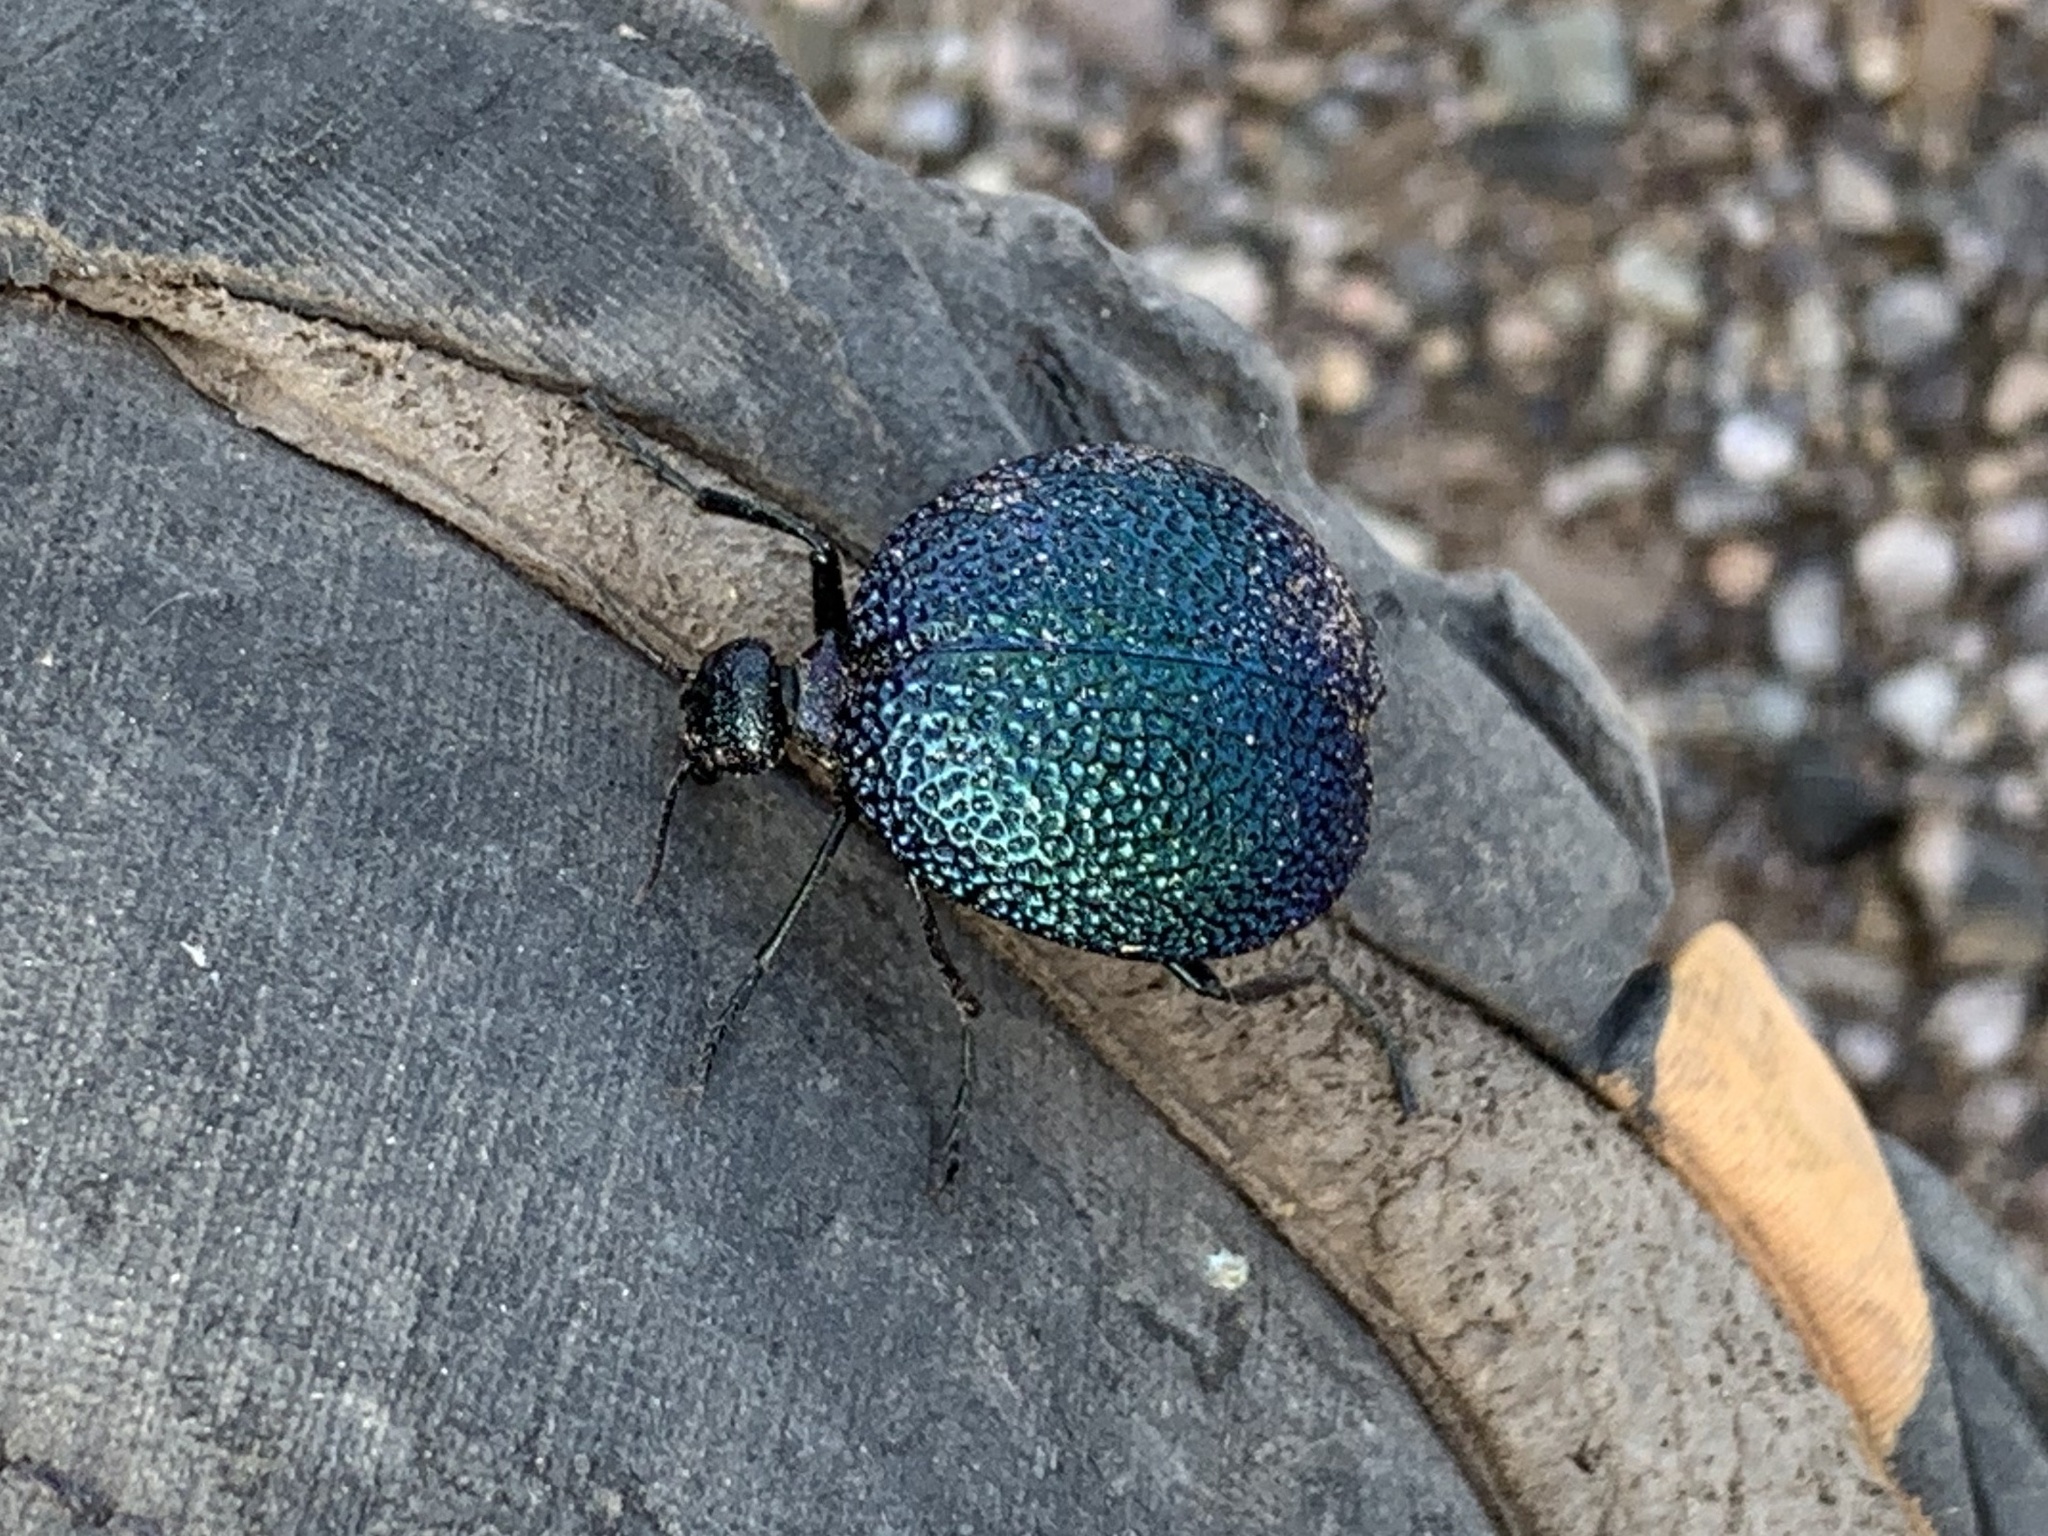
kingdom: Animalia
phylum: Arthropoda
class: Insecta
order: Coleoptera
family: Meloidae
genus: Cysteodemus
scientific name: Cysteodemus wislizeni
